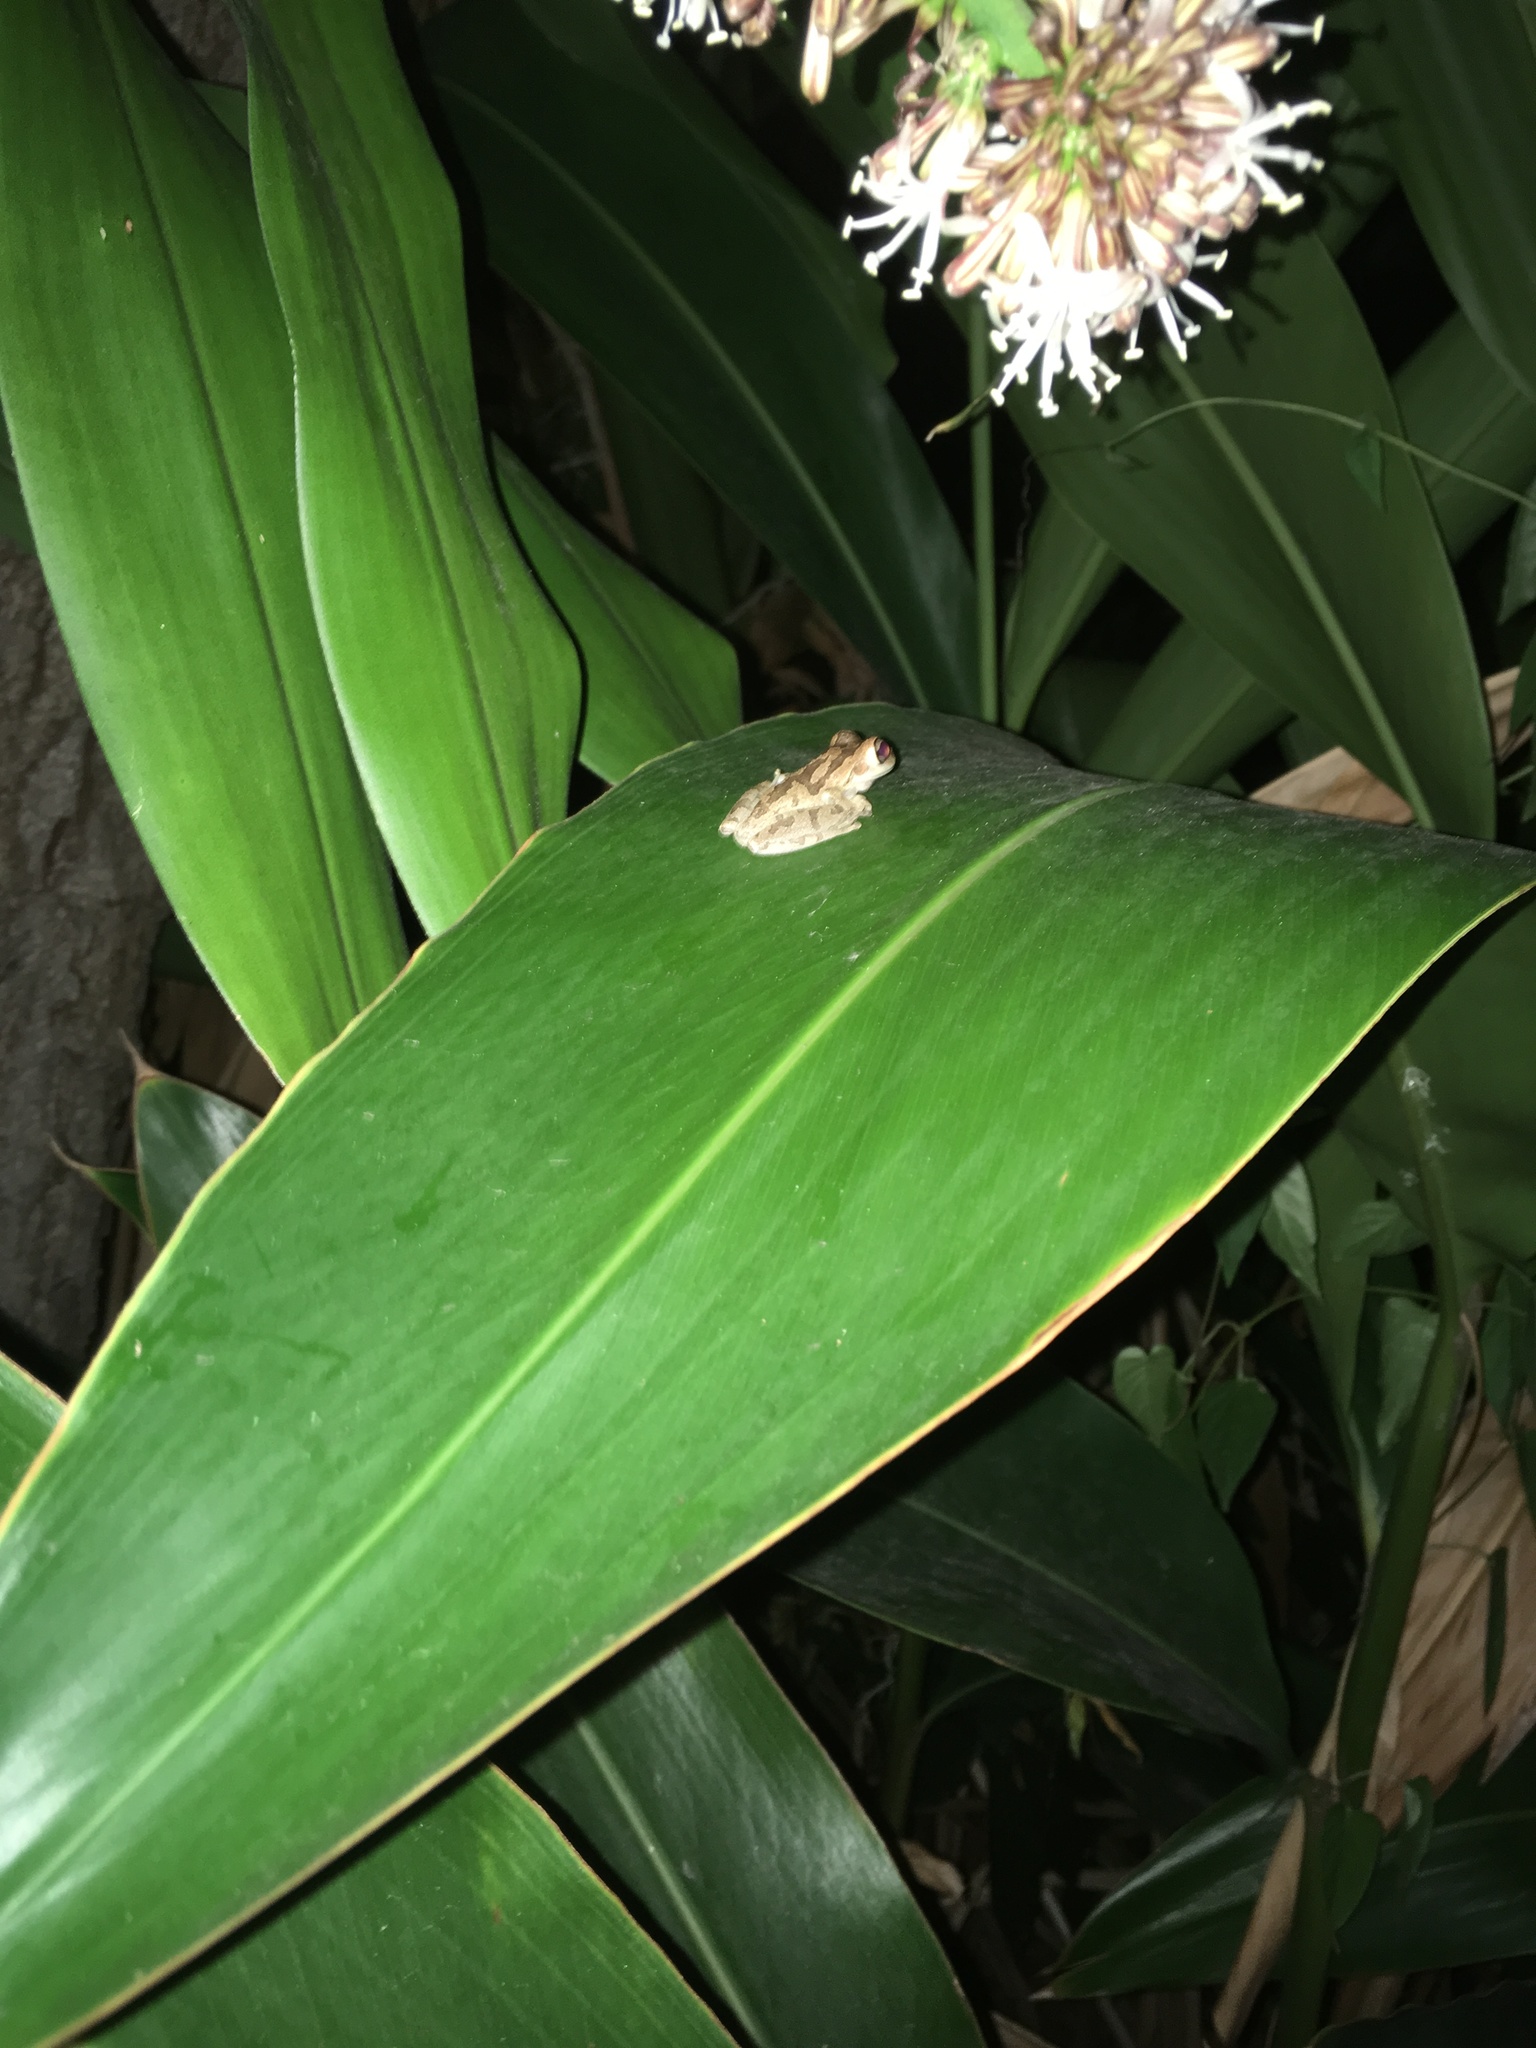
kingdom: Animalia
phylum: Chordata
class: Amphibia
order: Anura
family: Hylidae
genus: Osteopilus
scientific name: Osteopilus septentrionalis
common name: Cuban treefrog
